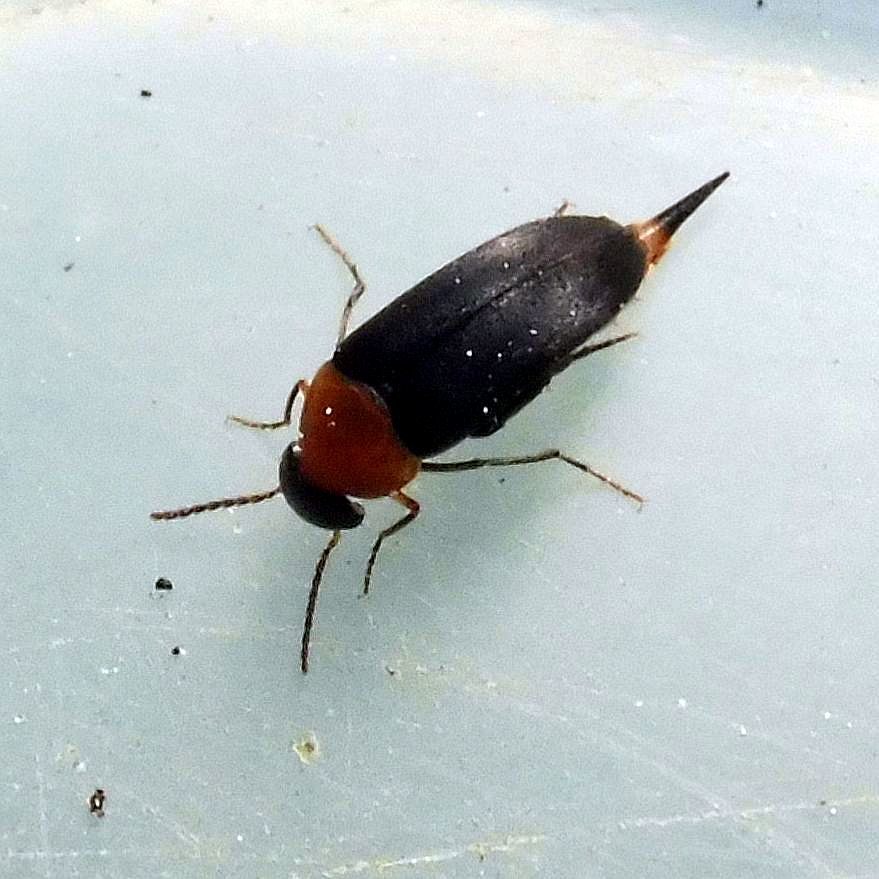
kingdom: Animalia
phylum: Arthropoda
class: Insecta
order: Coleoptera
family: Mordellidae
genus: Mordellochroa
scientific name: Mordellochroa abdominalis
